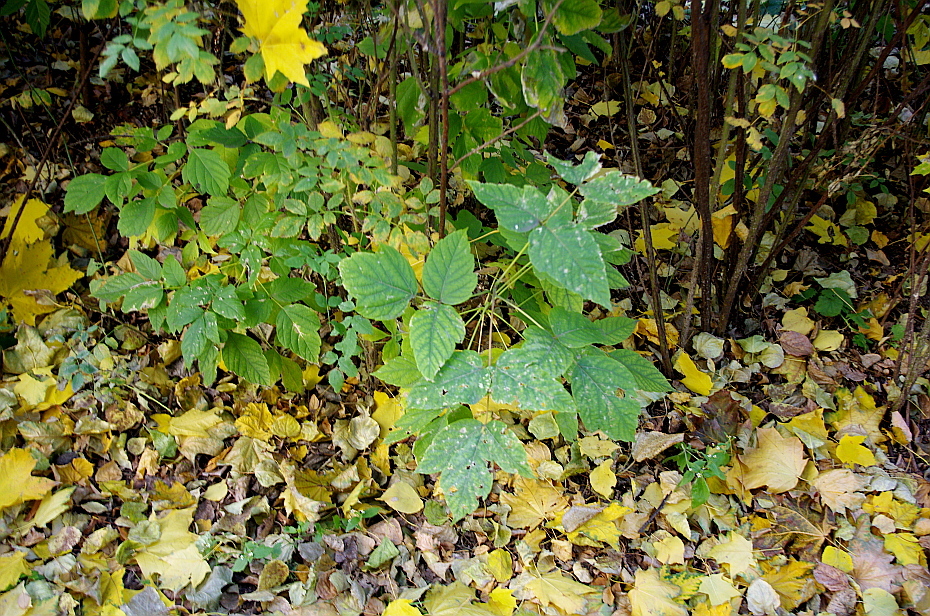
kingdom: Plantae
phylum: Tracheophyta
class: Magnoliopsida
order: Sapindales
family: Sapindaceae
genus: Acer
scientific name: Acer negundo
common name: Ashleaf maple
